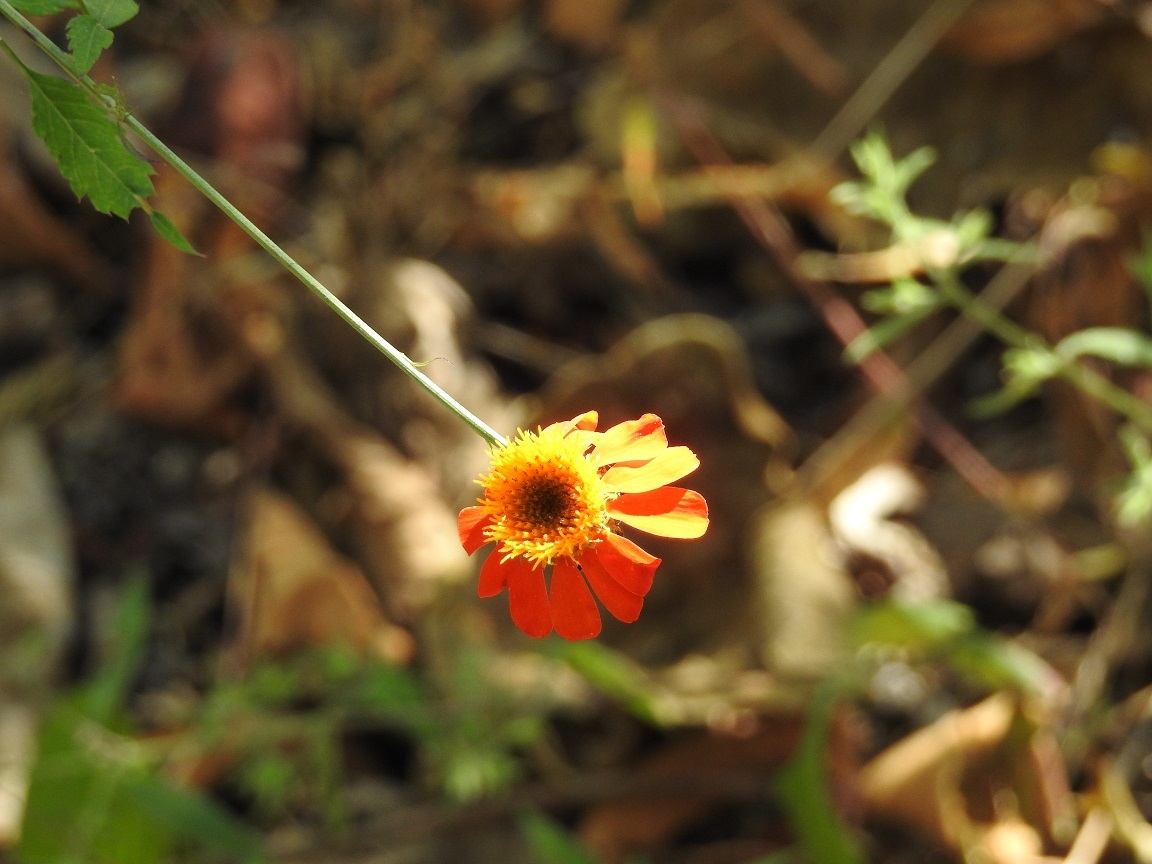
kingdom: Plantae
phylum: Tracheophyta
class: Magnoliopsida
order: Asterales
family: Asteraceae
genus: Adenophyllum
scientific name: Adenophyllum aurantium
